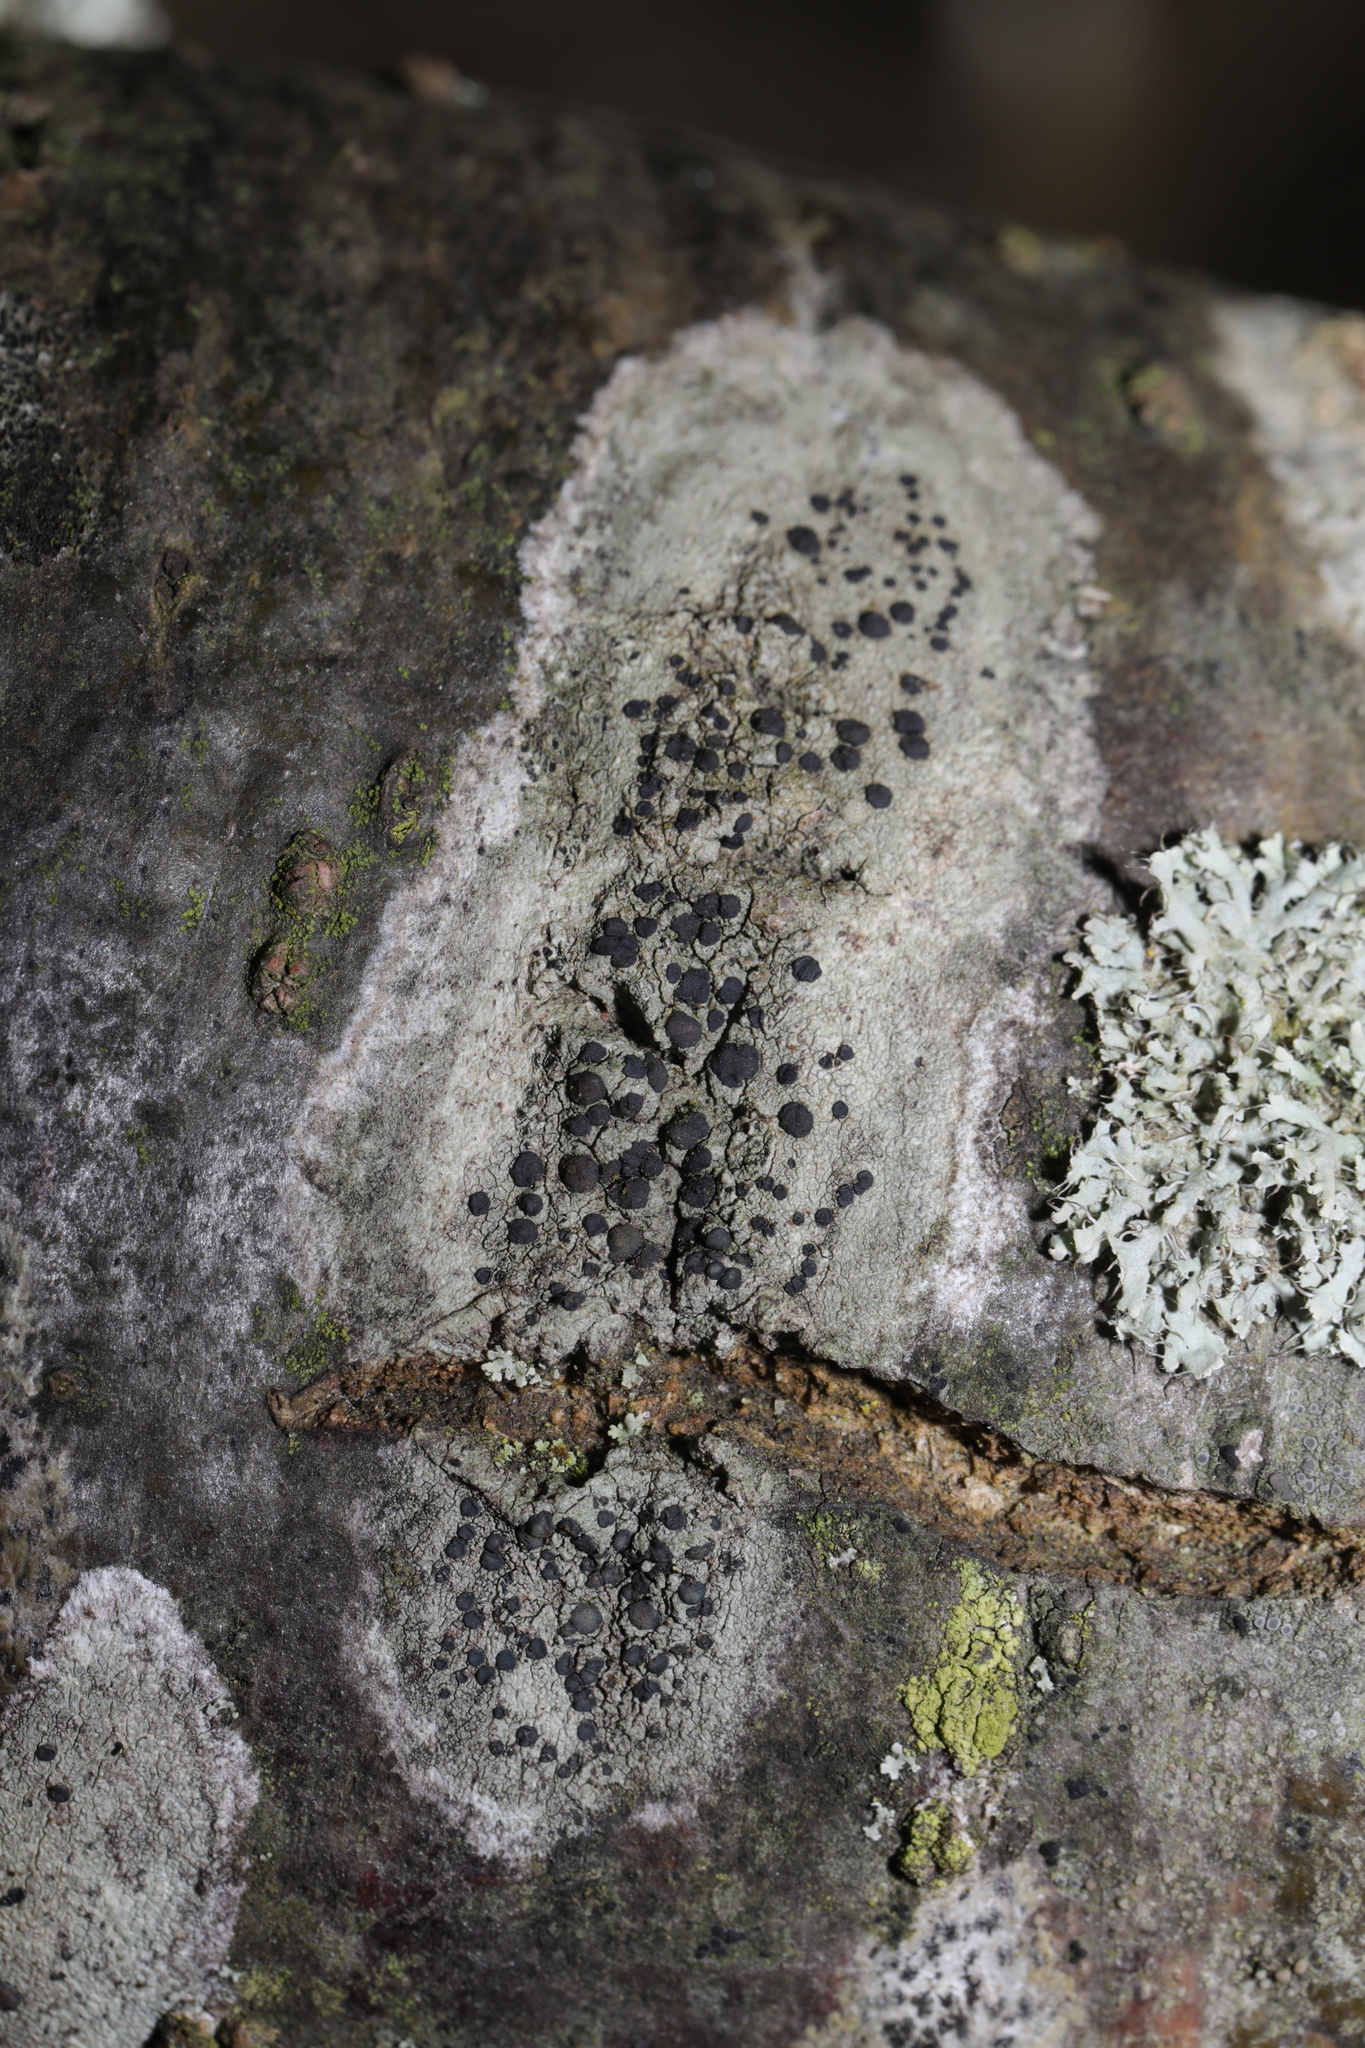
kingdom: Fungi
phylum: Ascomycota
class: Lecanoromycetes
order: Lecanorales
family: Lecanoraceae
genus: Lecidella
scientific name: Lecidella elaeochroma
